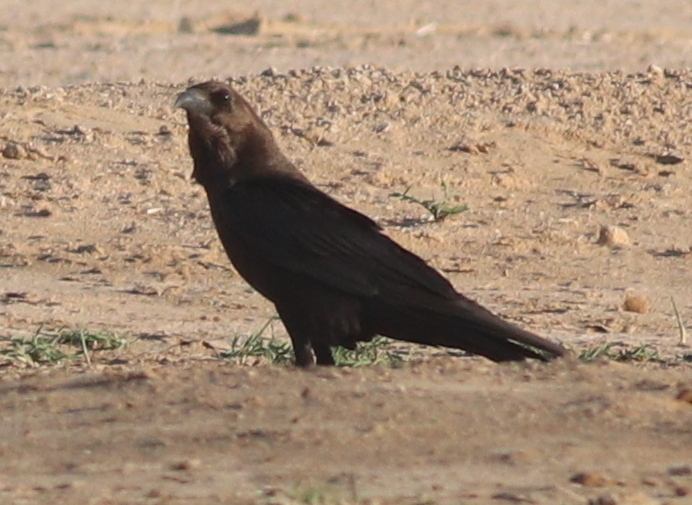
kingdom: Animalia
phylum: Chordata
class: Aves
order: Passeriformes
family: Corvidae
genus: Corvus
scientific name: Corvus ruficollis
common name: Brown-necked raven
